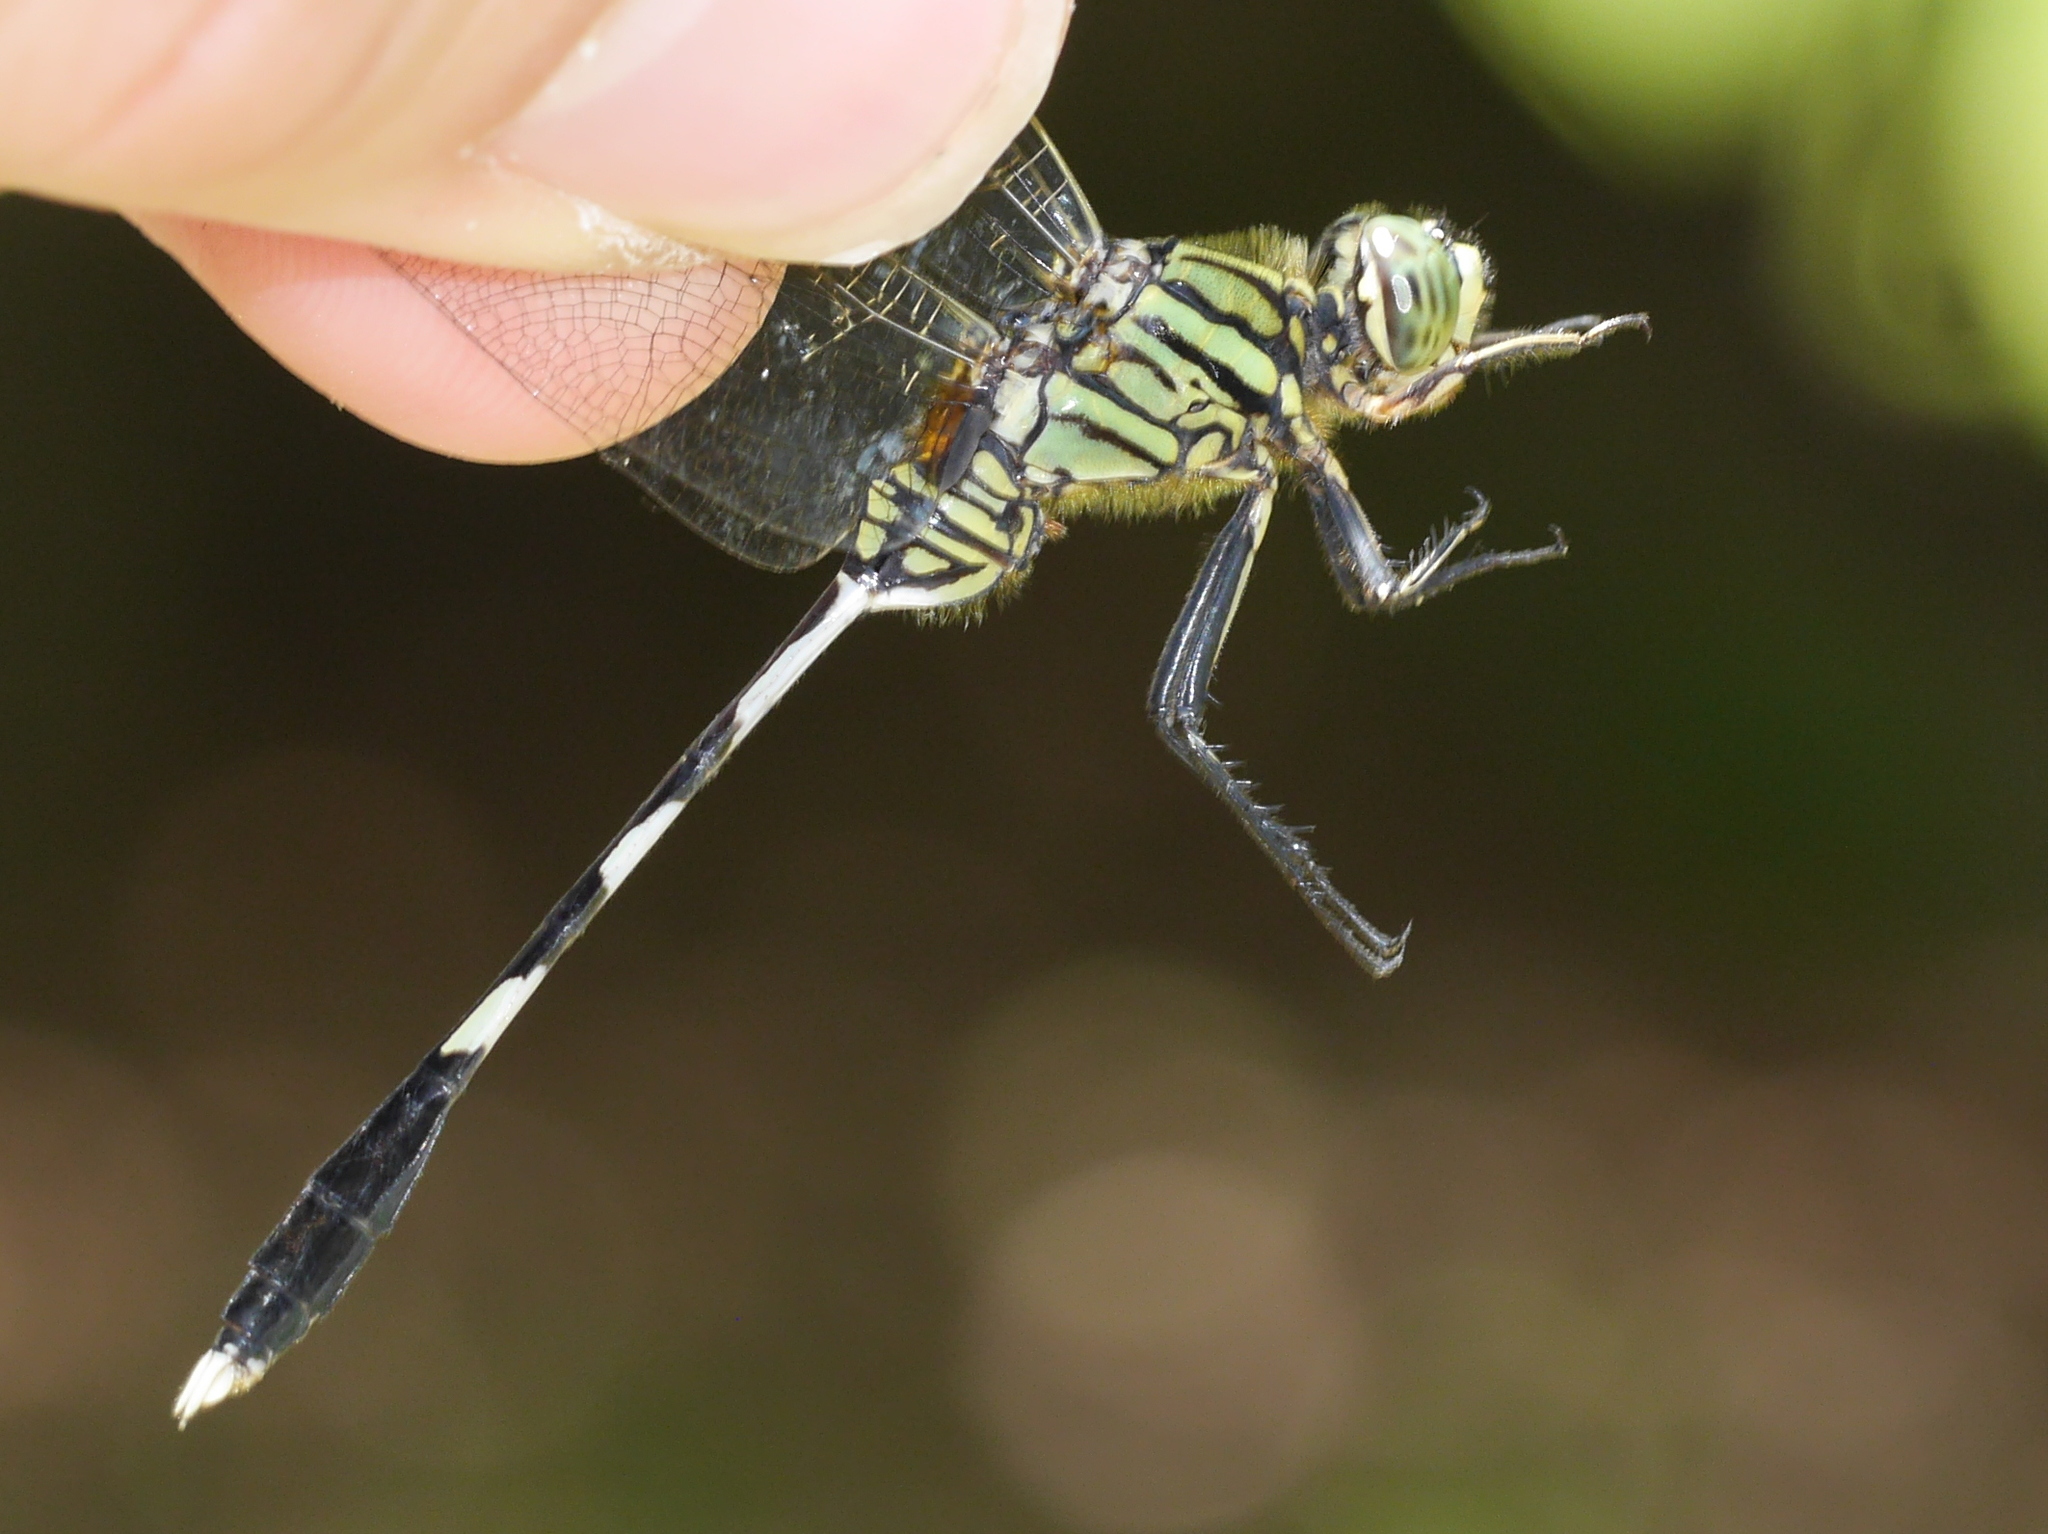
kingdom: Animalia
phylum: Arthropoda
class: Insecta
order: Odonata
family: Libellulidae
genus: Orthetrum
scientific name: Orthetrum sabina
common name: Slender skimmer
